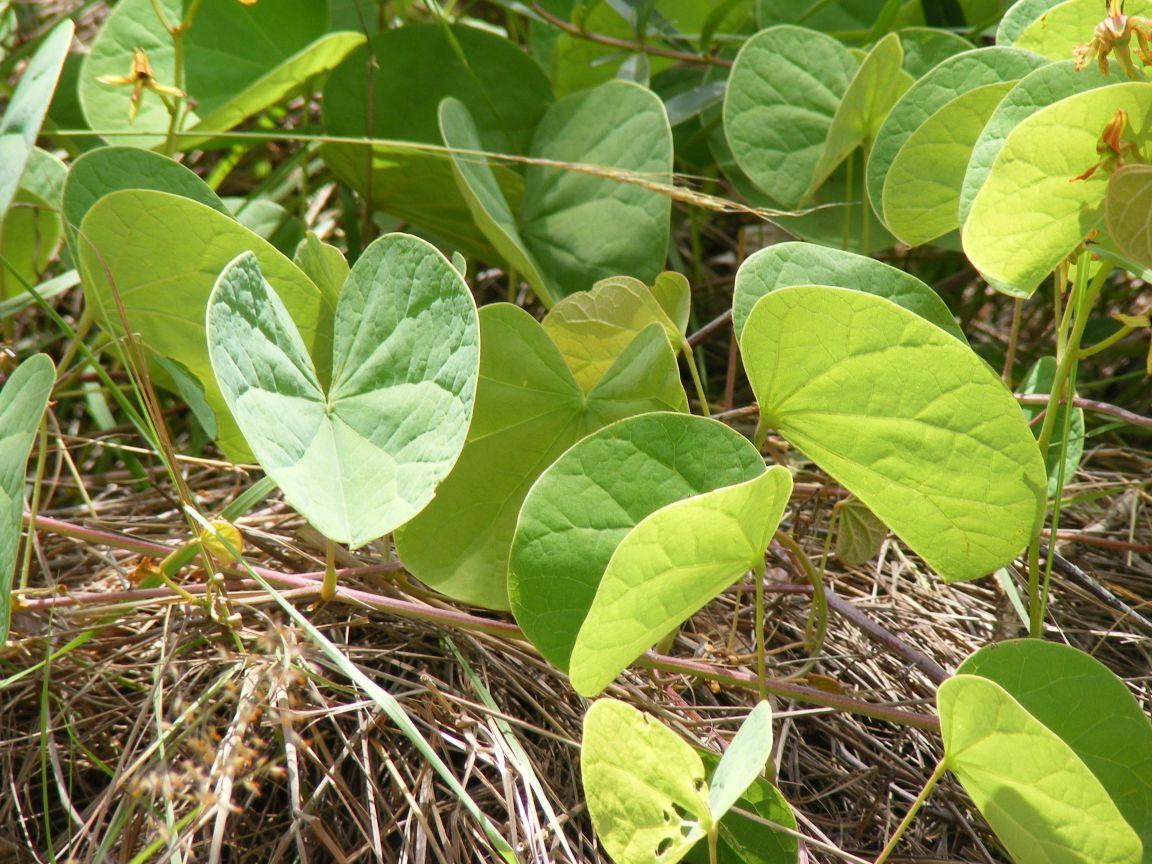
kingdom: Plantae
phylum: Tracheophyta
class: Magnoliopsida
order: Fabales
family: Fabaceae
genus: Tylosema
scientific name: Tylosema fassoglense
